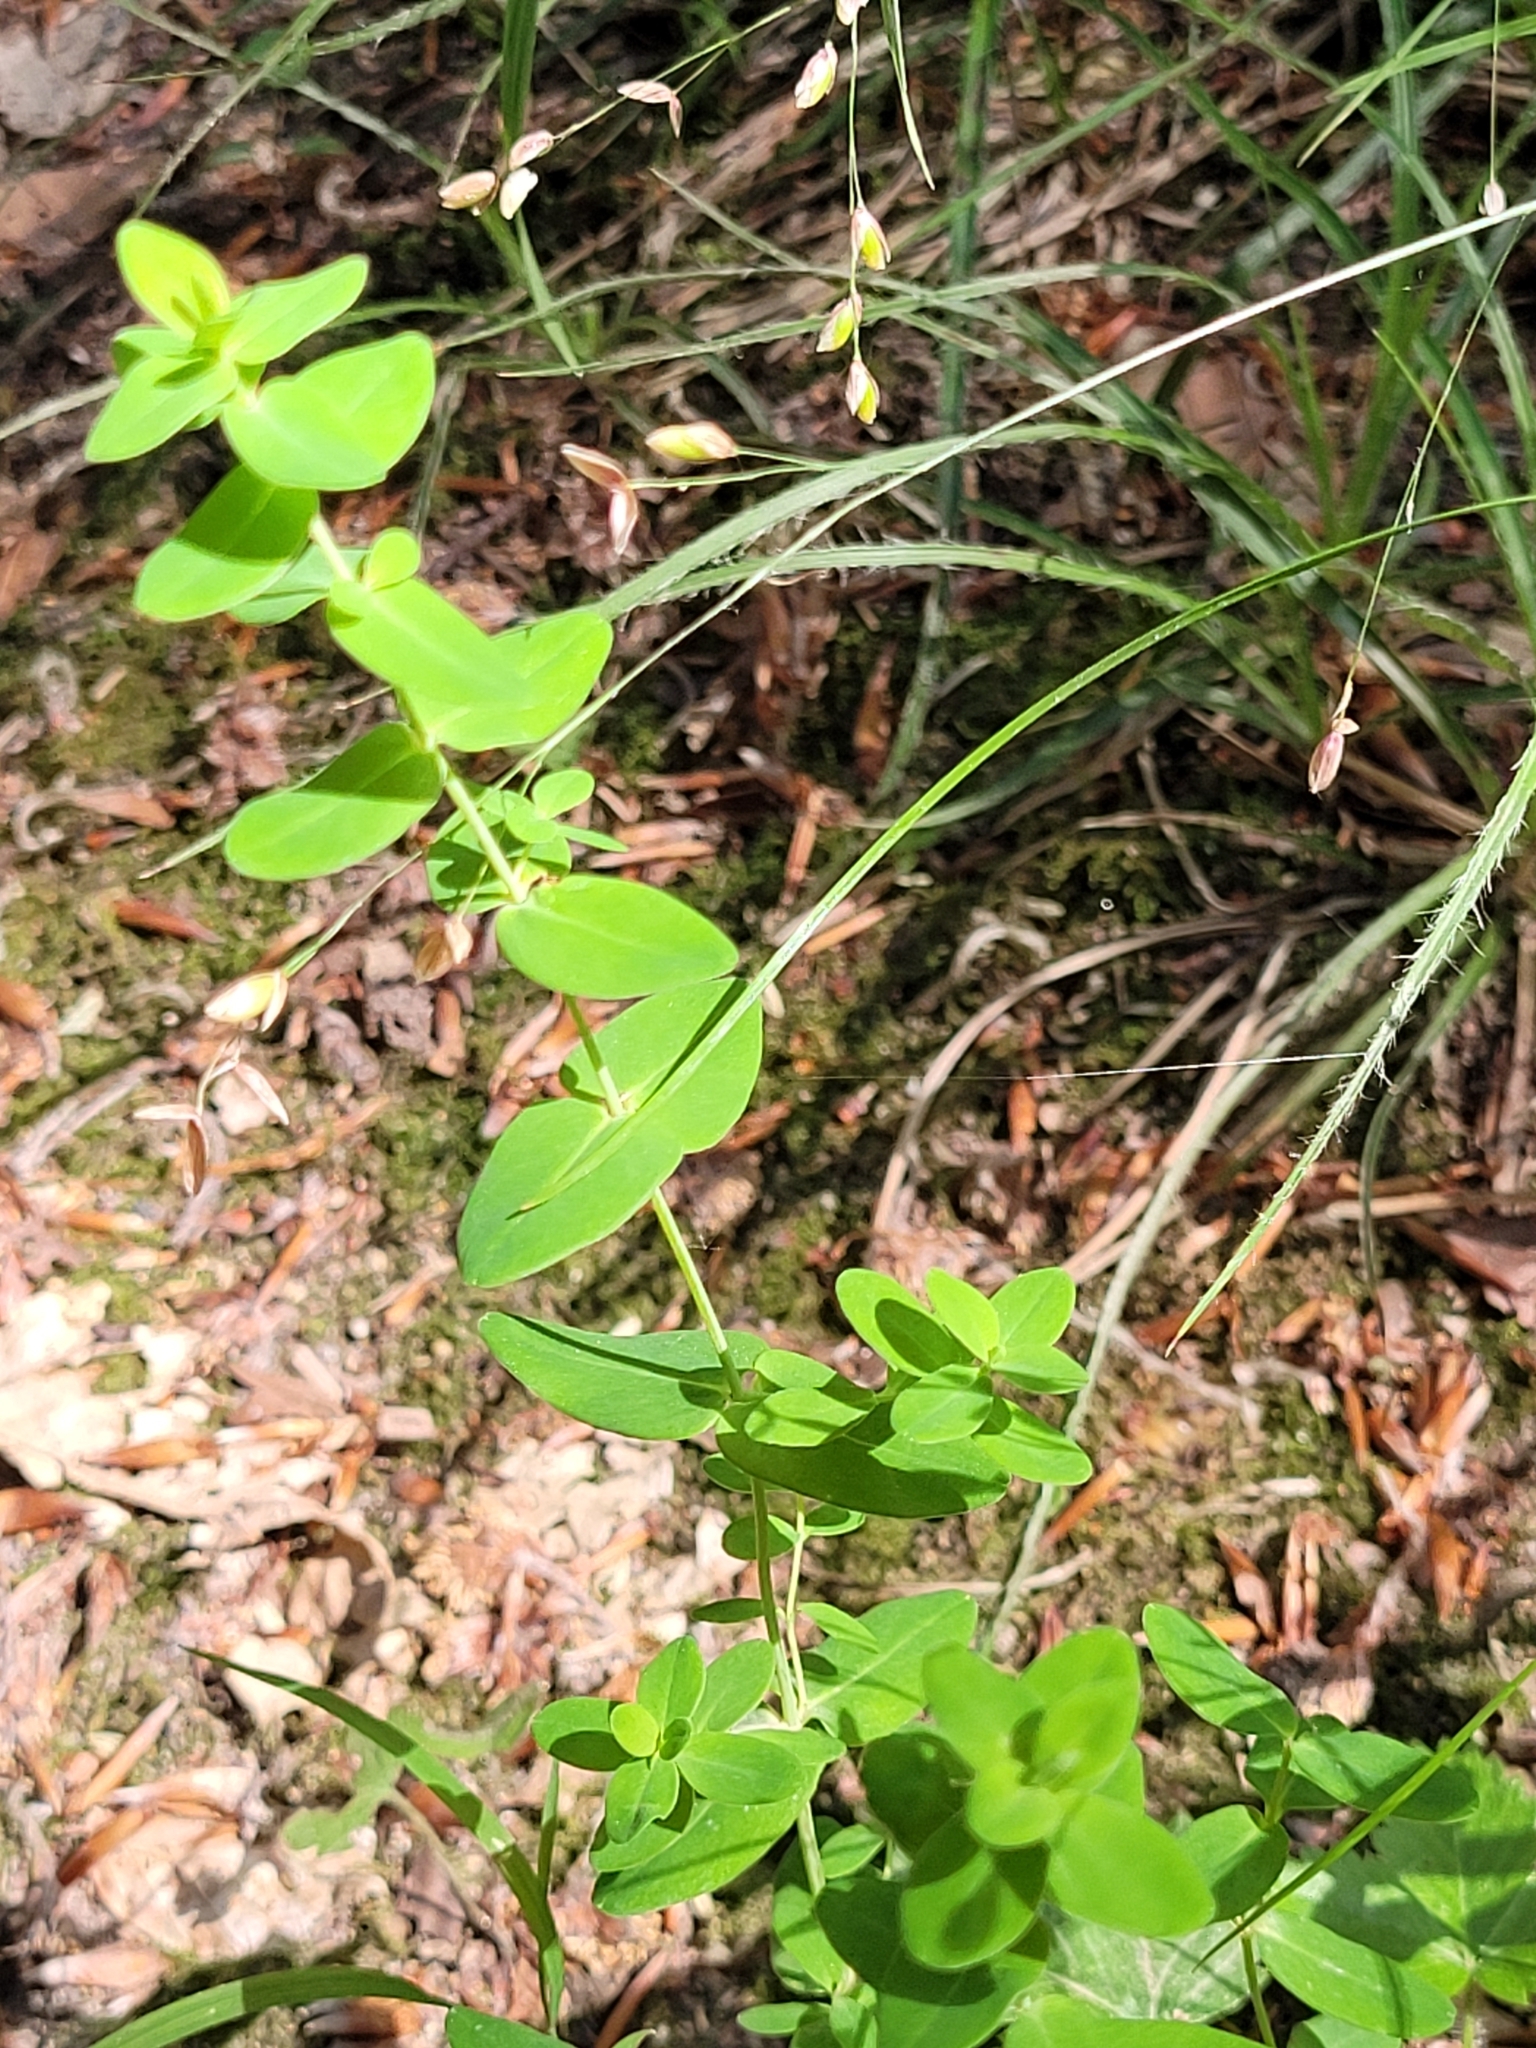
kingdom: Plantae
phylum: Tracheophyta
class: Magnoliopsida
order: Malpighiales
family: Hypericaceae
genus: Hypericum
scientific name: Hypericum pulchrum
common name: Slender st. john's-wort
